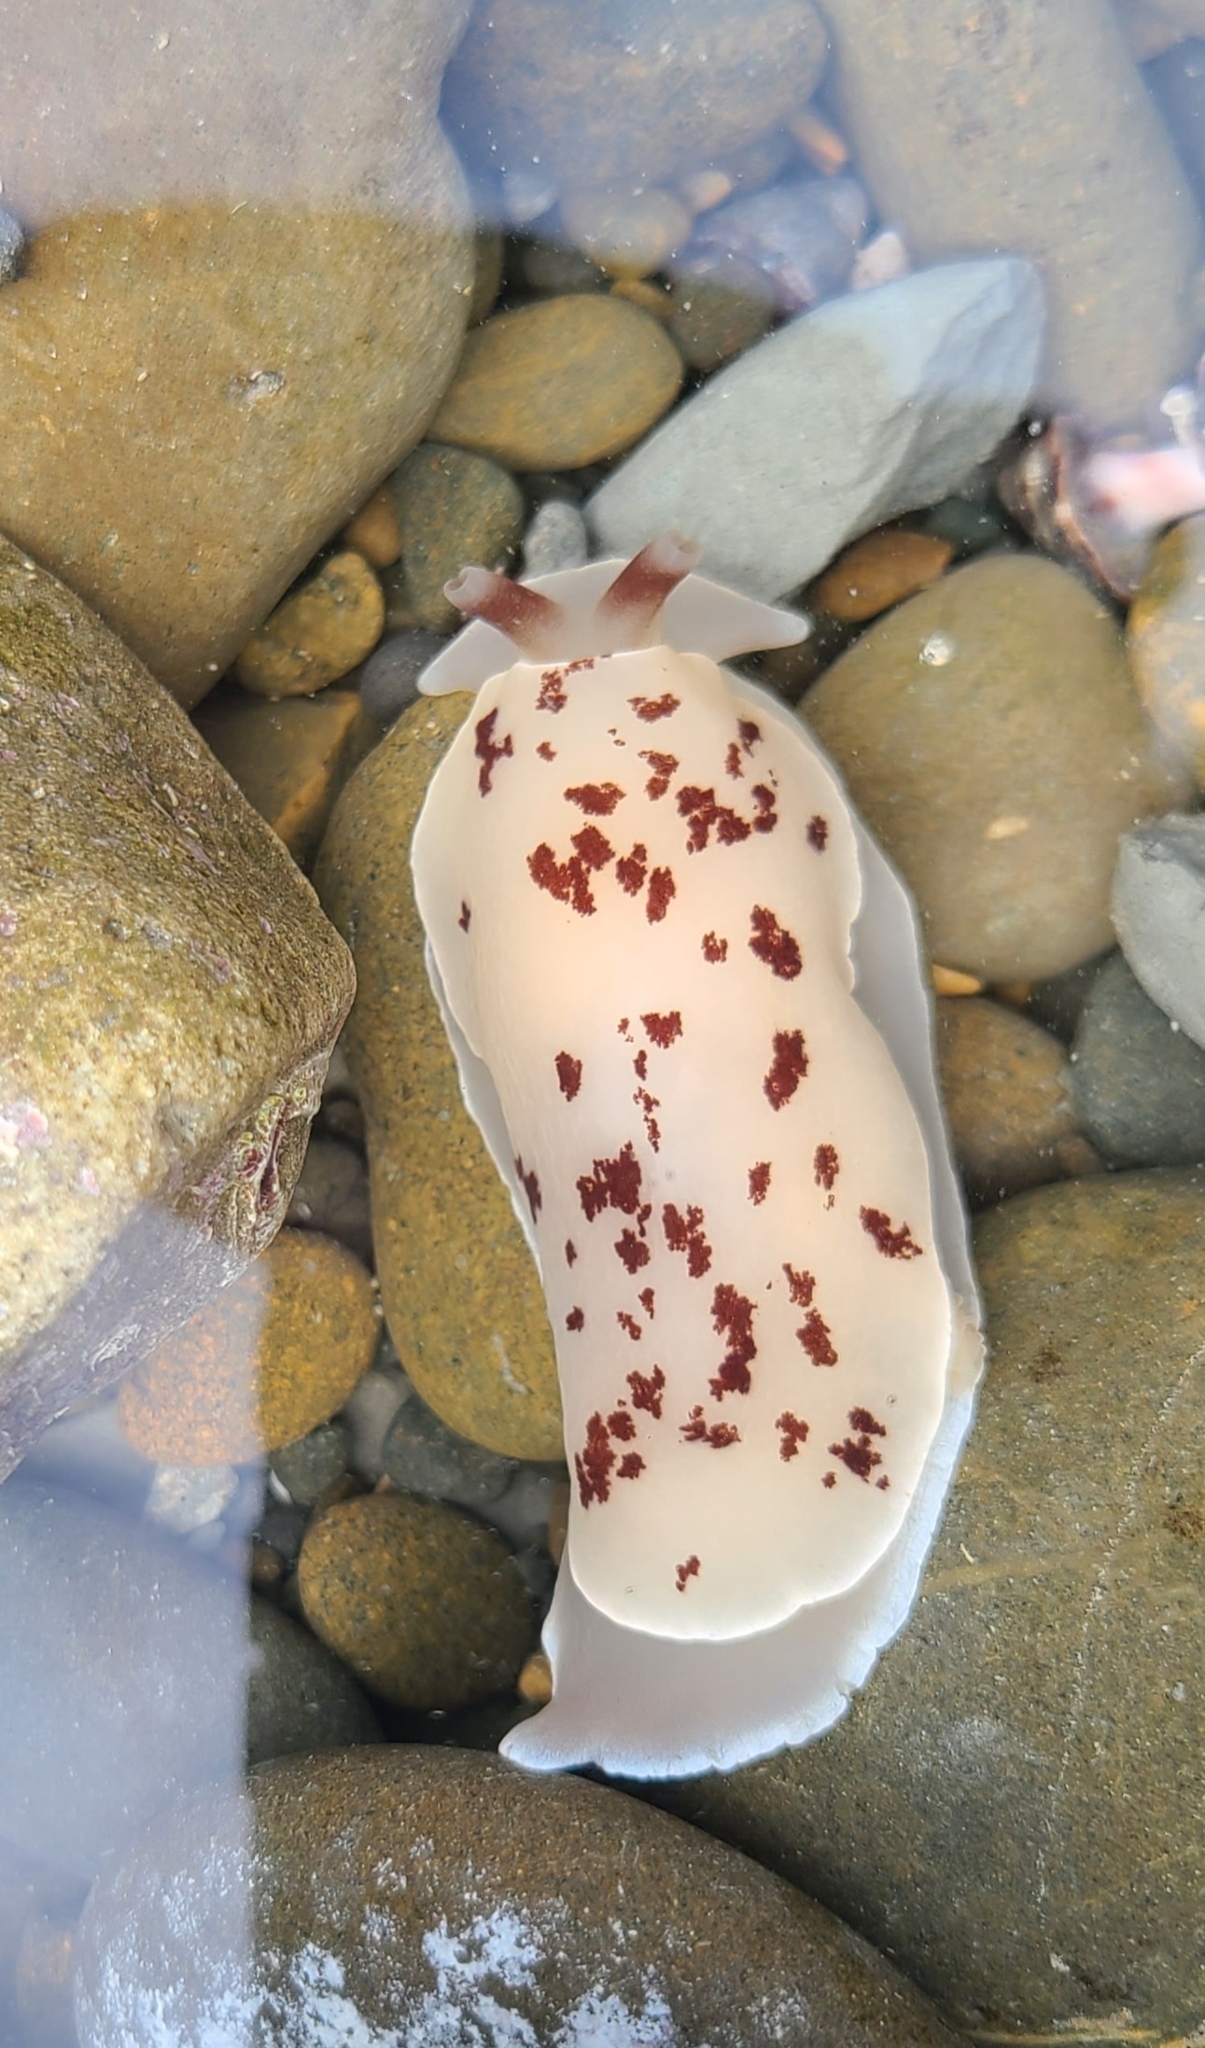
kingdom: Animalia
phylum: Mollusca
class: Gastropoda
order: Pleurobranchida
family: Pleurobranchidae
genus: Berthella
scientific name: Berthella ornata
